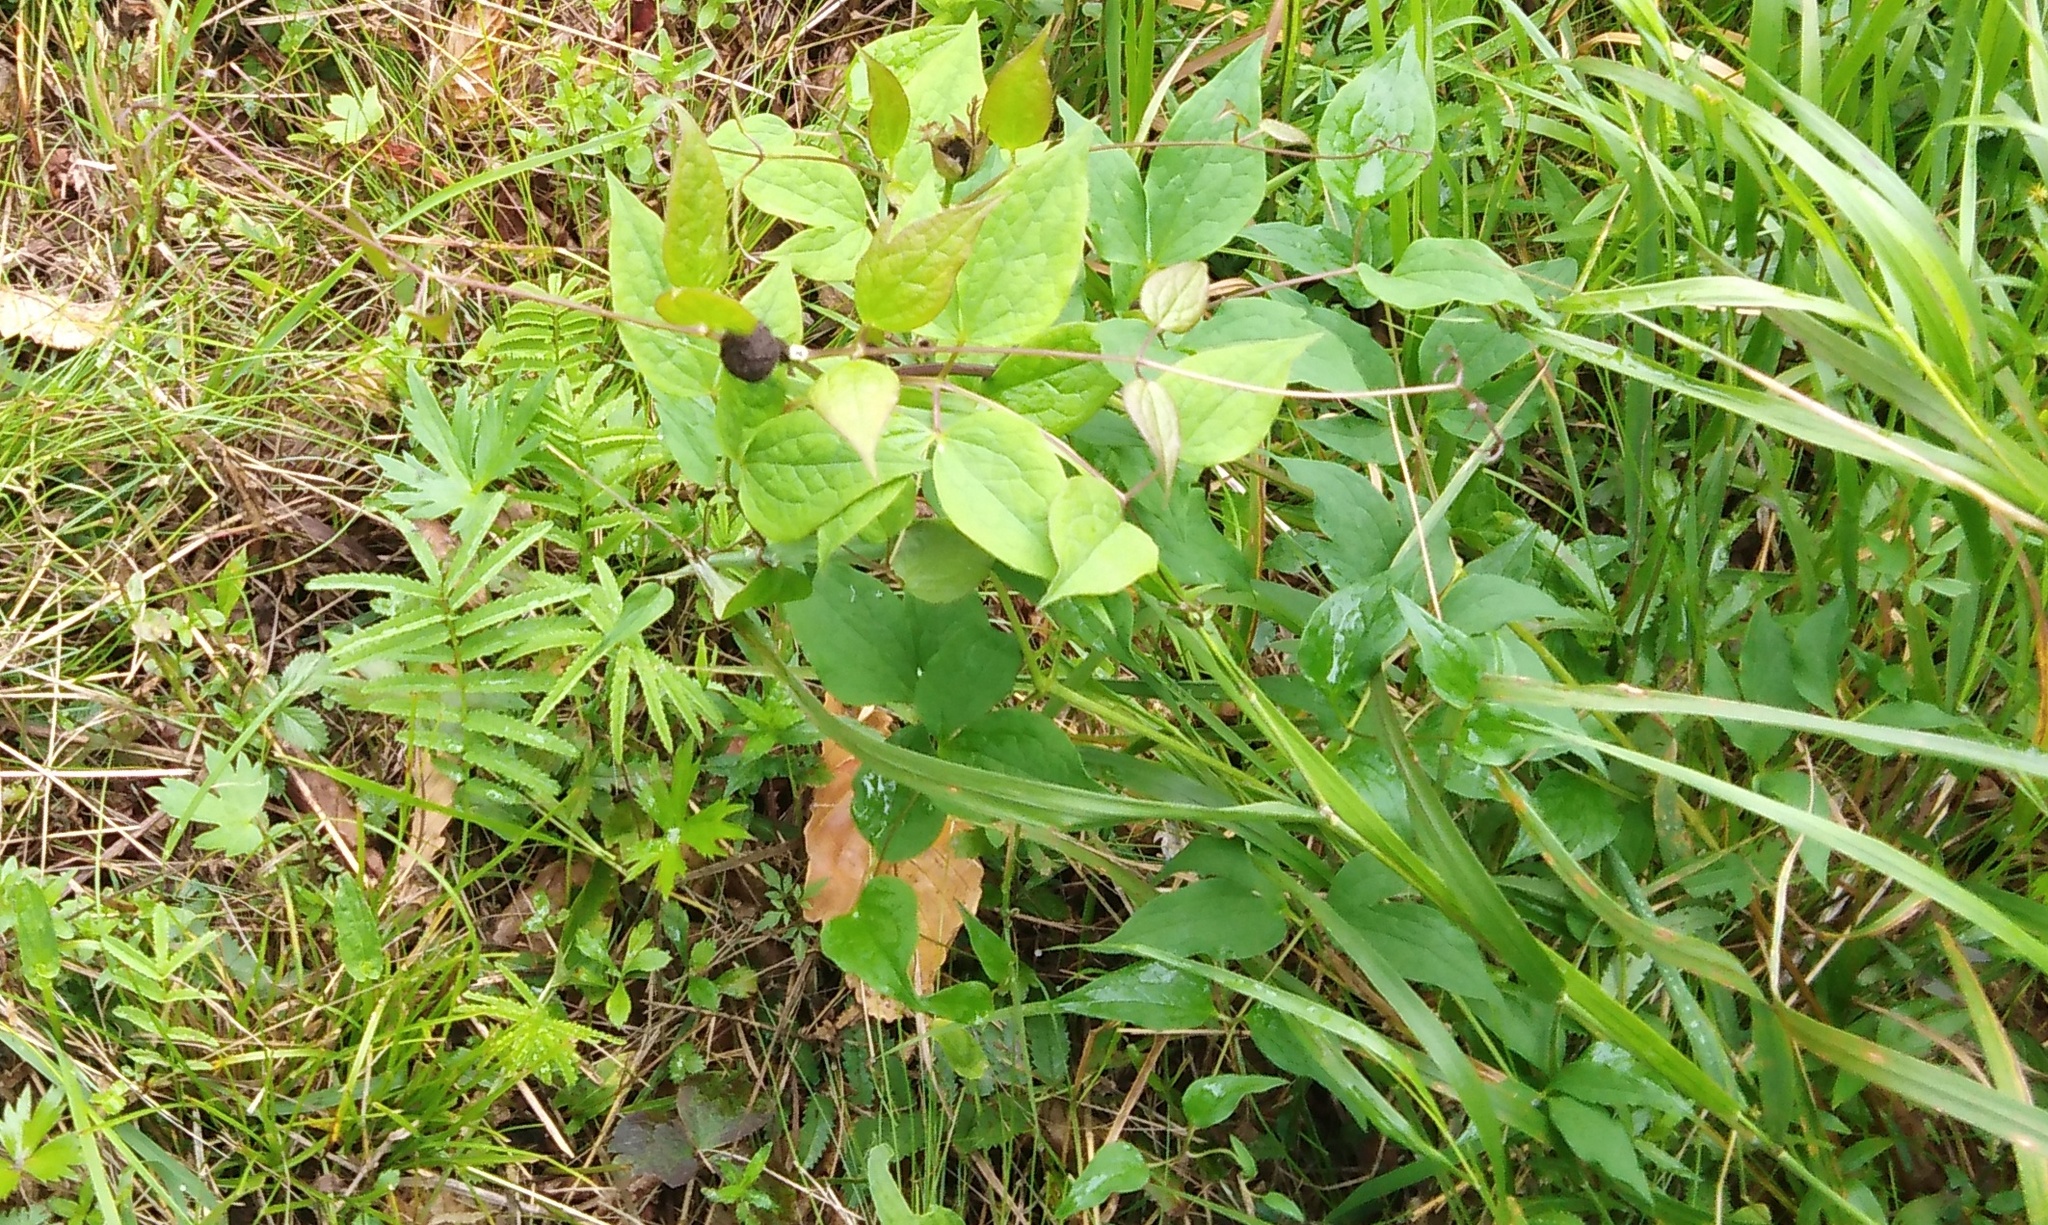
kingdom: Plantae
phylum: Tracheophyta
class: Magnoliopsida
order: Ranunculales
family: Ranunculaceae
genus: Clematis
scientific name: Clematis fusca
